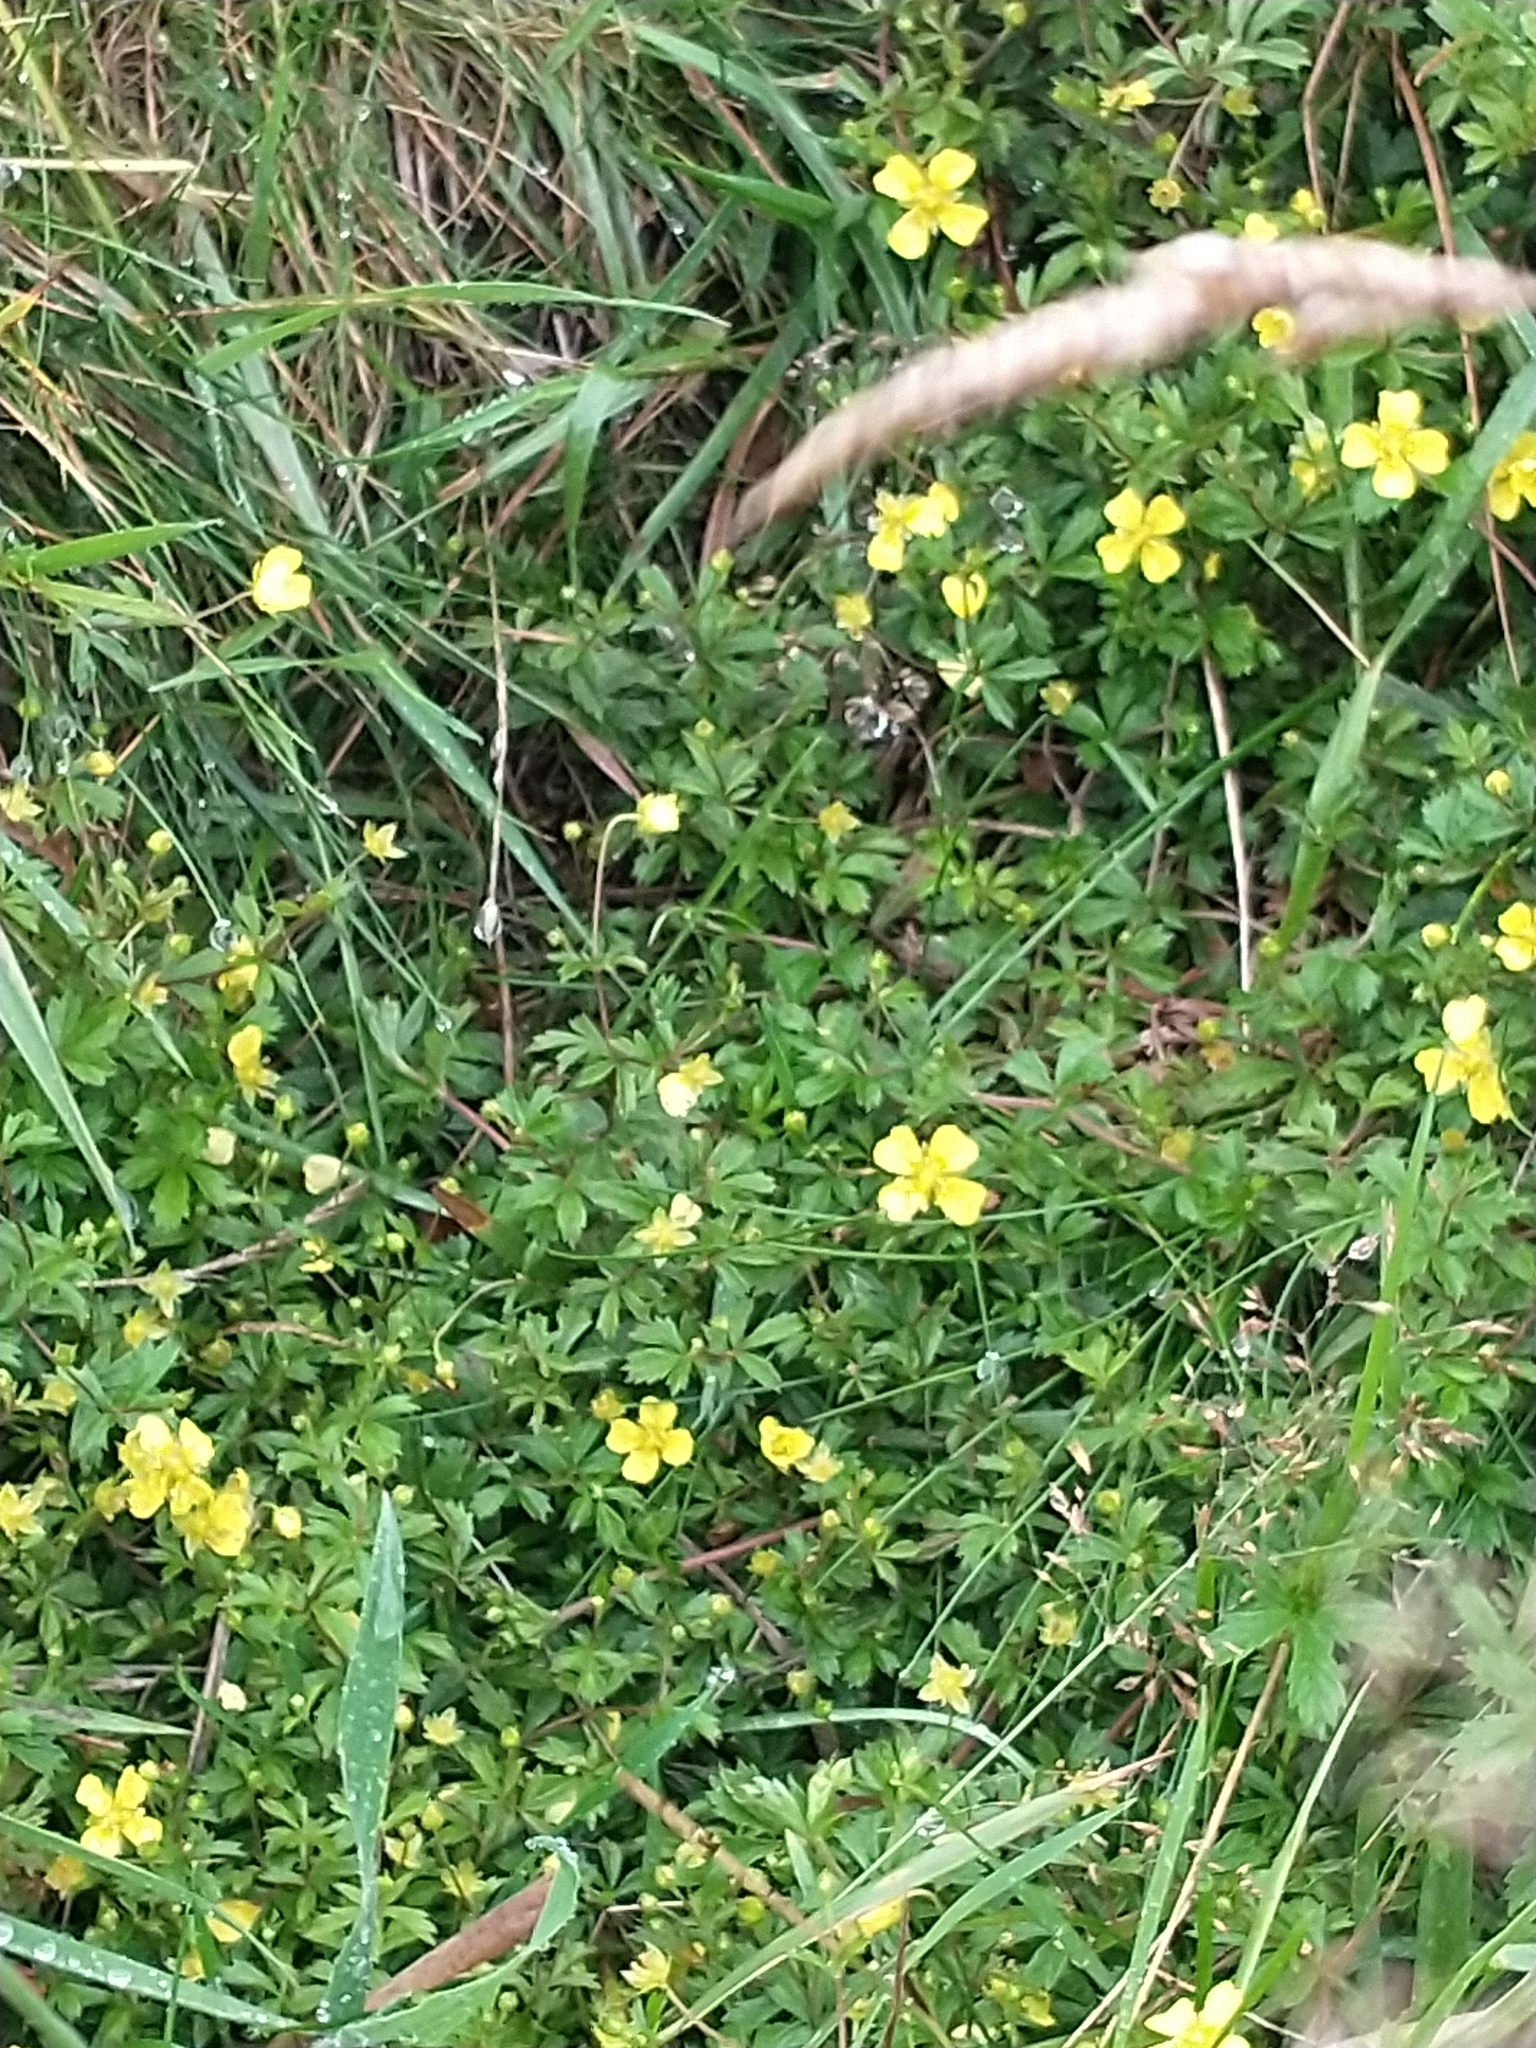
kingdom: Plantae
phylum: Tracheophyta
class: Magnoliopsida
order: Rosales
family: Rosaceae
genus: Potentilla
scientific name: Potentilla erecta
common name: Tormentil
